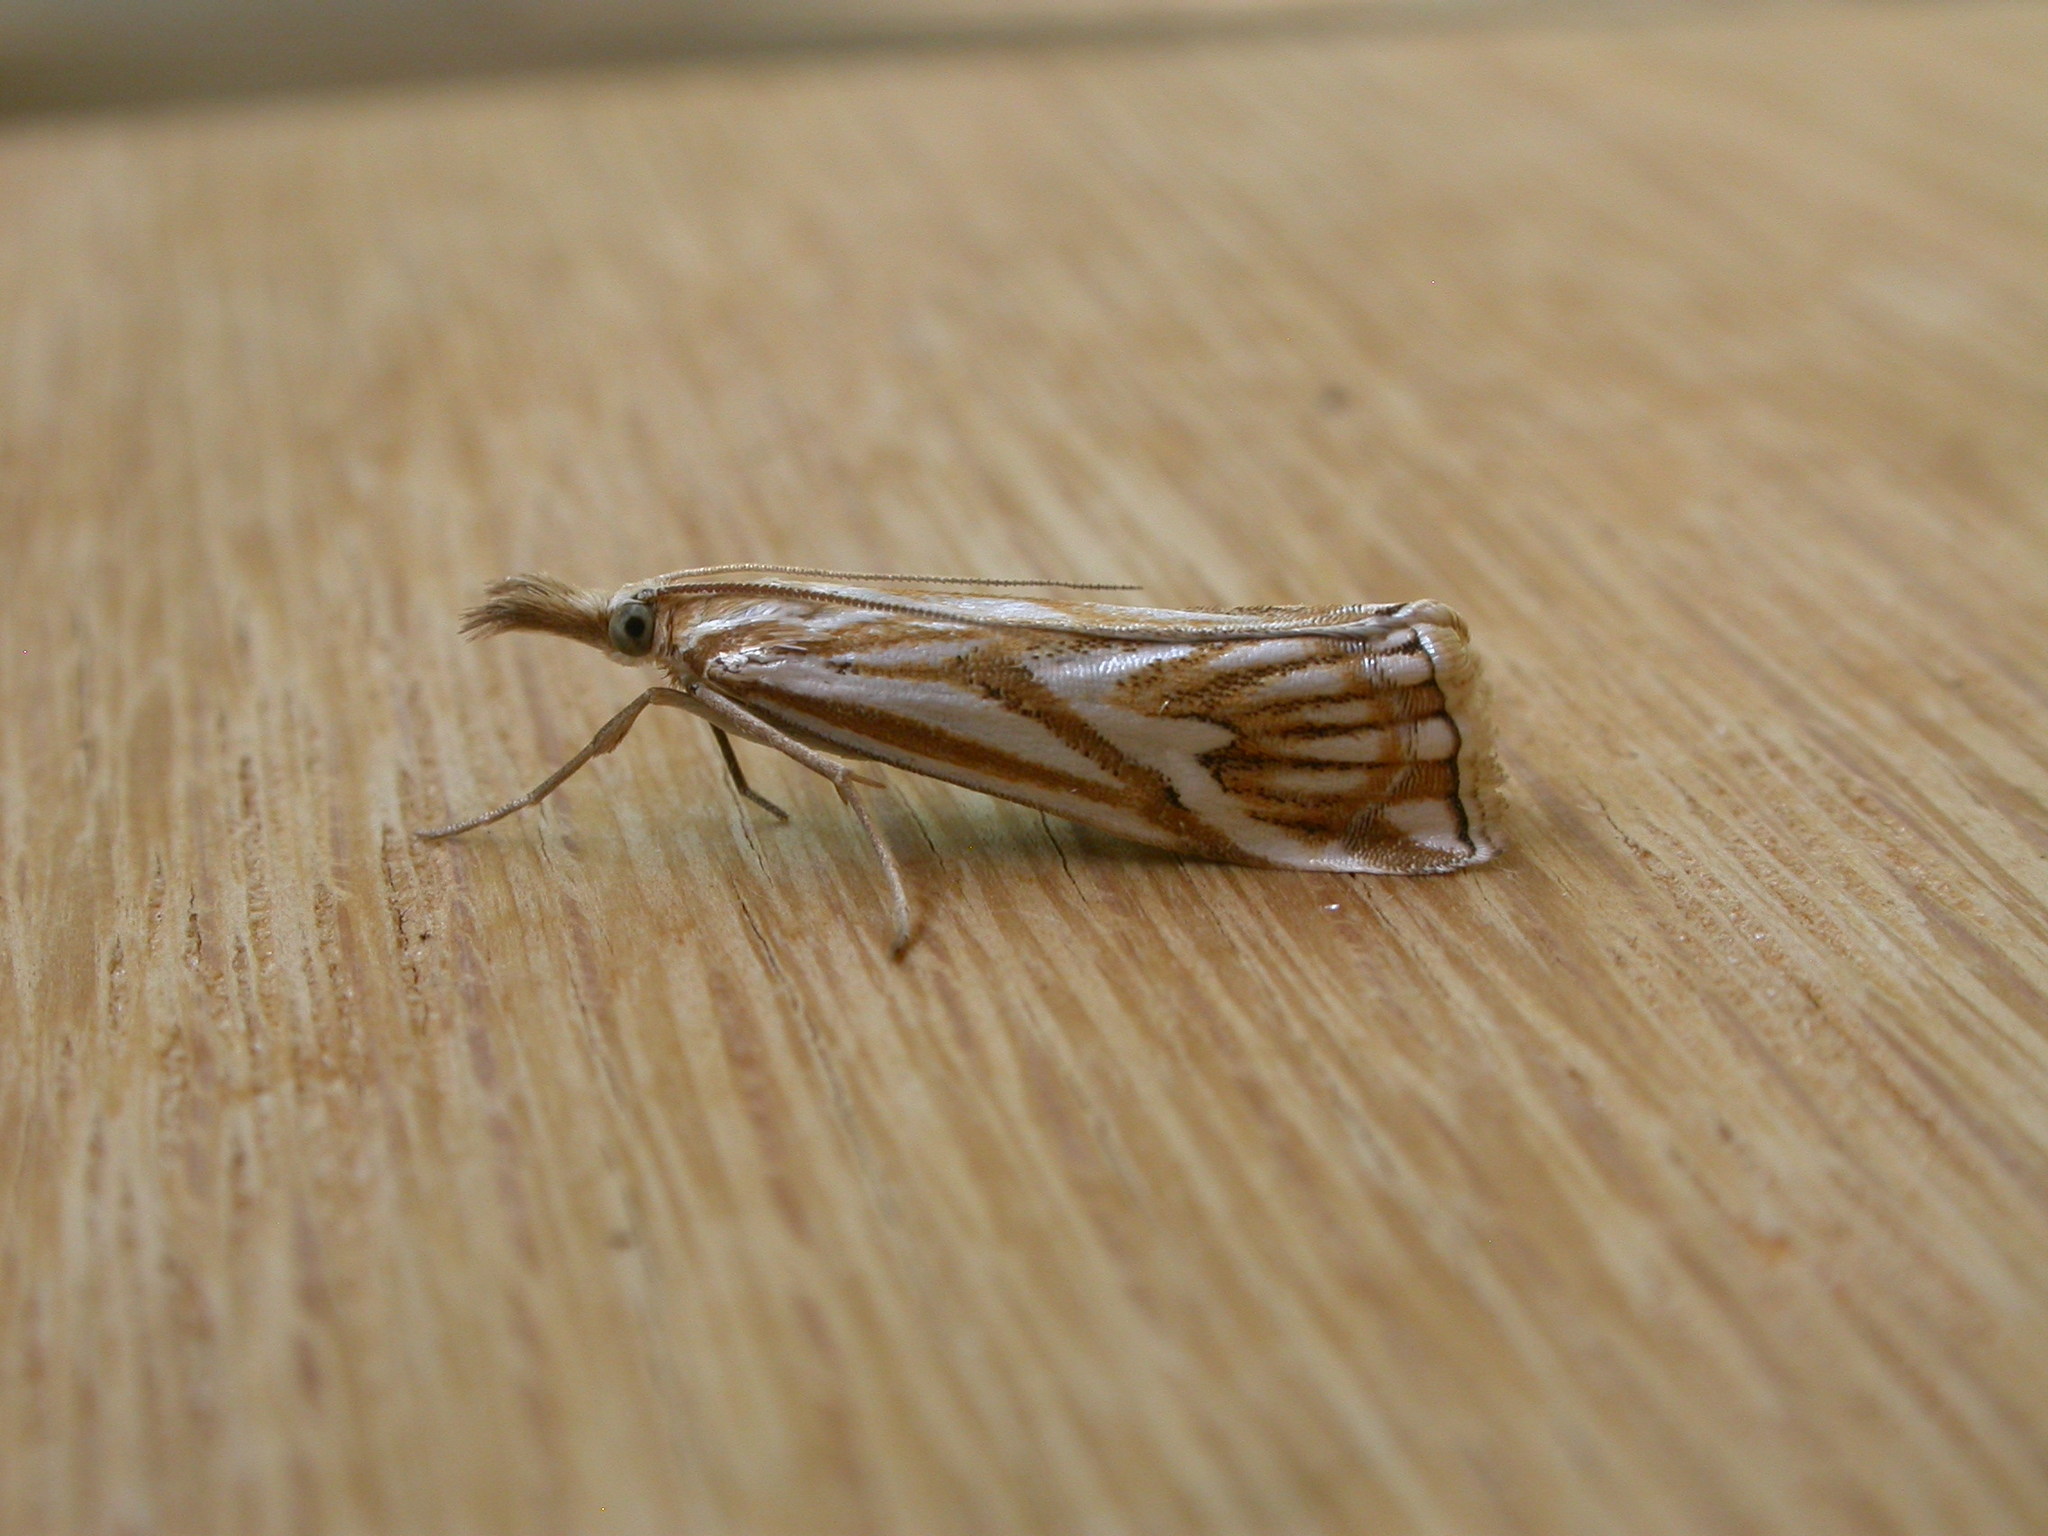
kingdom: Animalia
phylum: Arthropoda
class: Insecta
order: Lepidoptera
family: Crambidae
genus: Hednota
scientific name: Hednota pleniferellus
